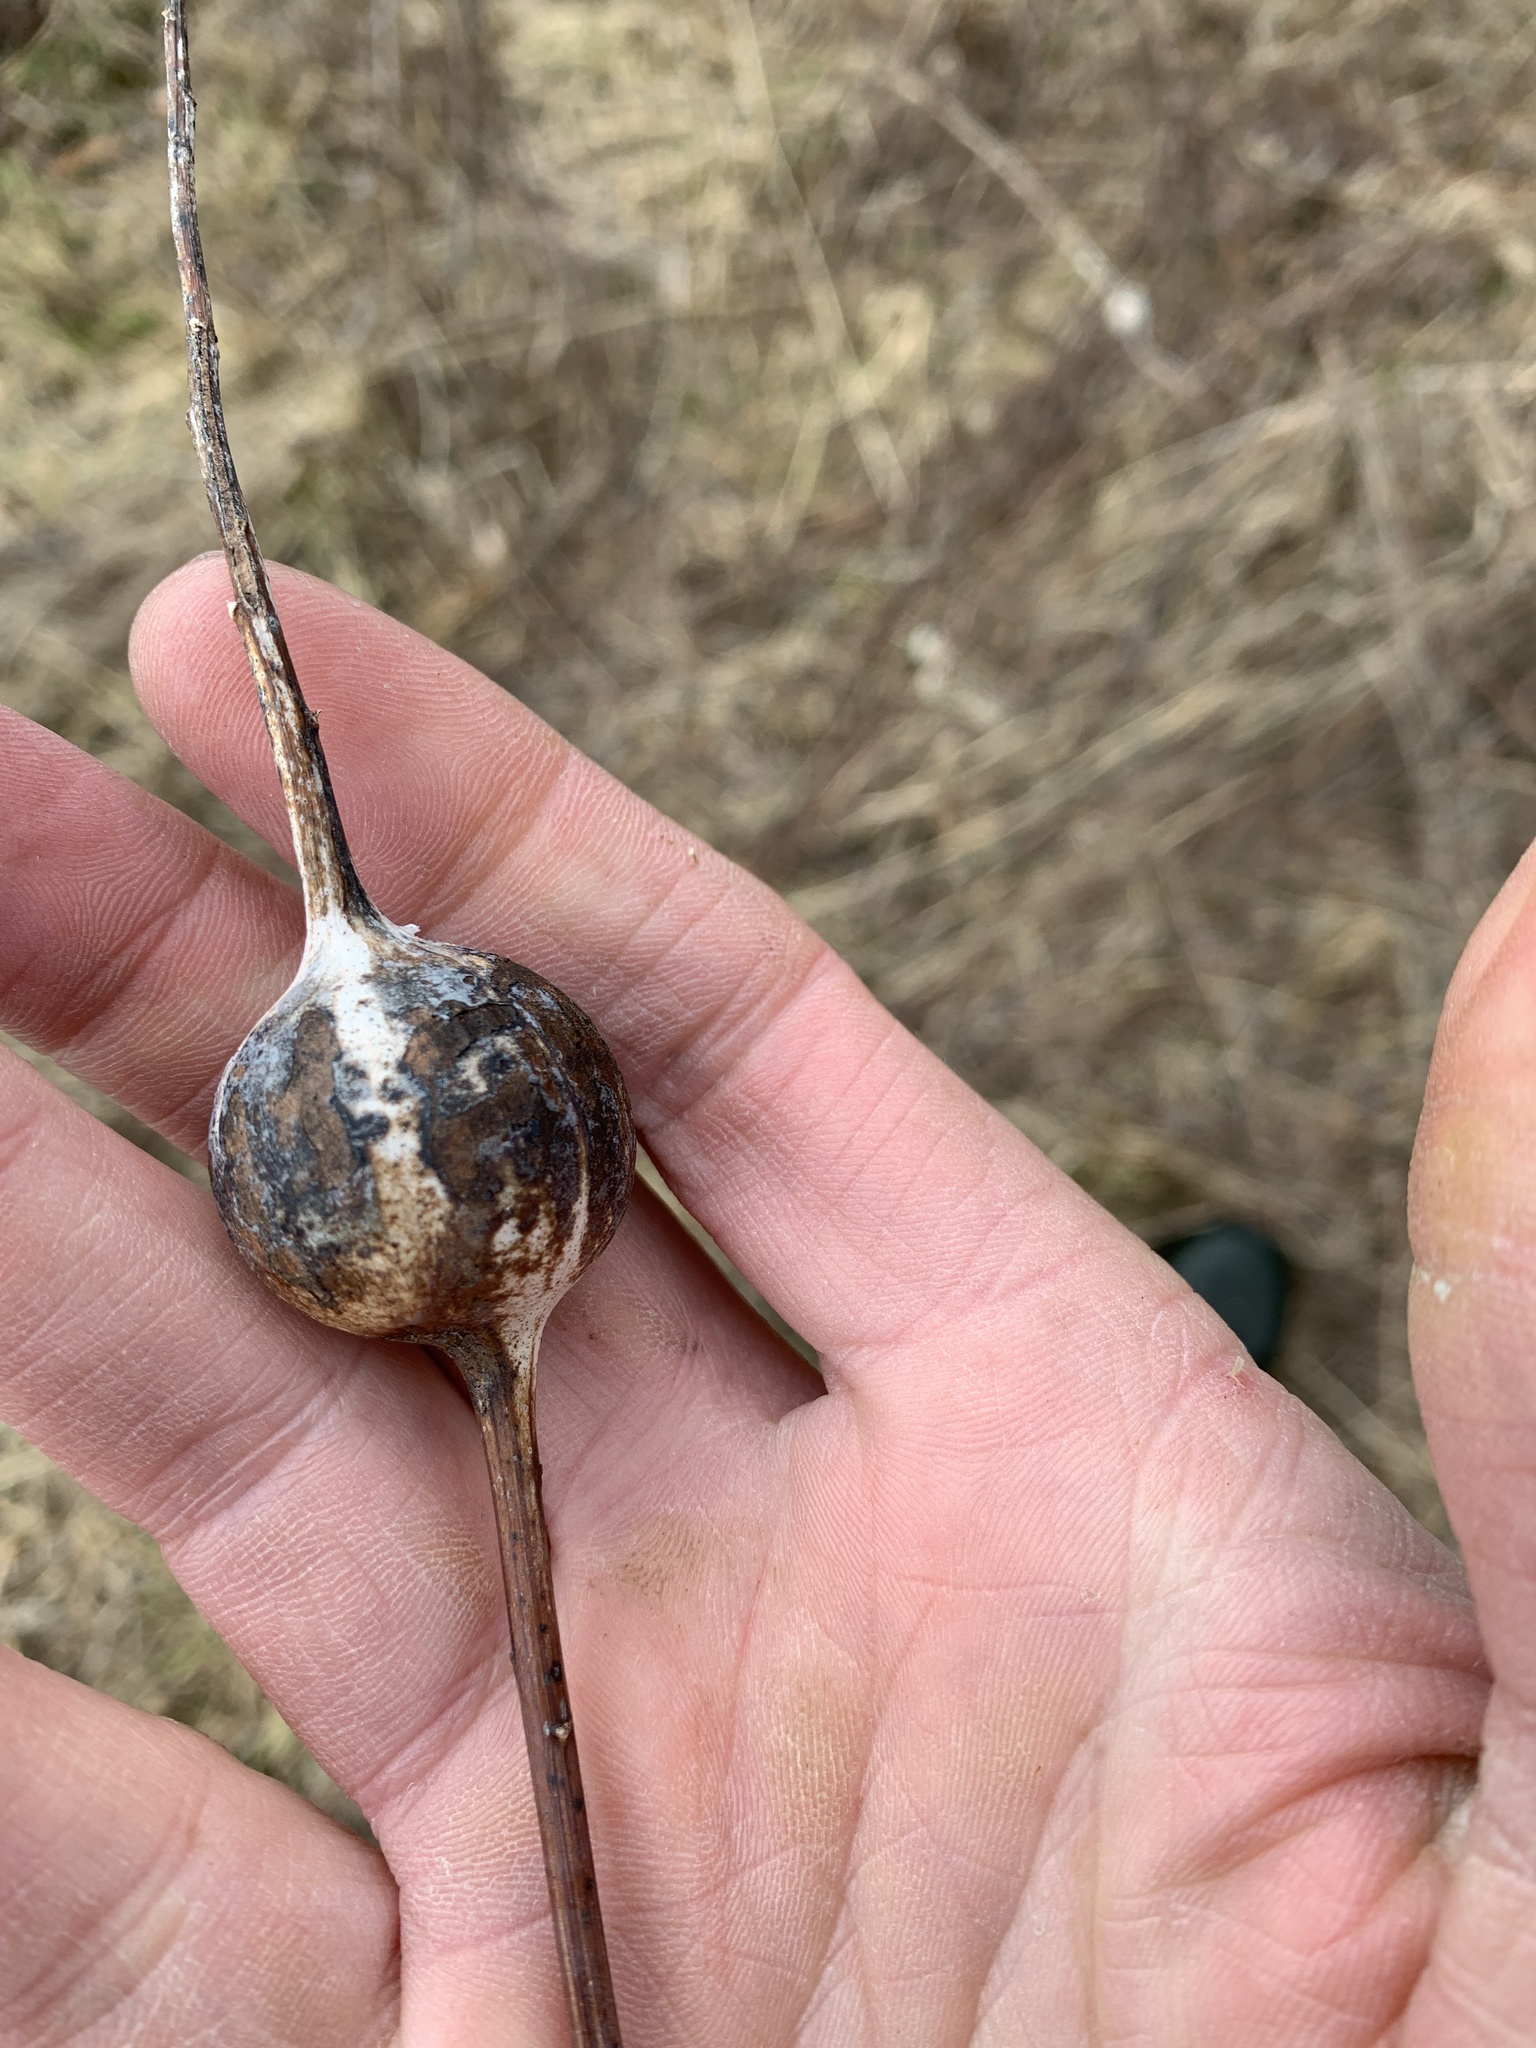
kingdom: Animalia
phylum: Arthropoda
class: Insecta
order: Diptera
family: Tephritidae
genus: Eurosta
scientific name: Eurosta solidaginis
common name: Goldenrod gall fly
